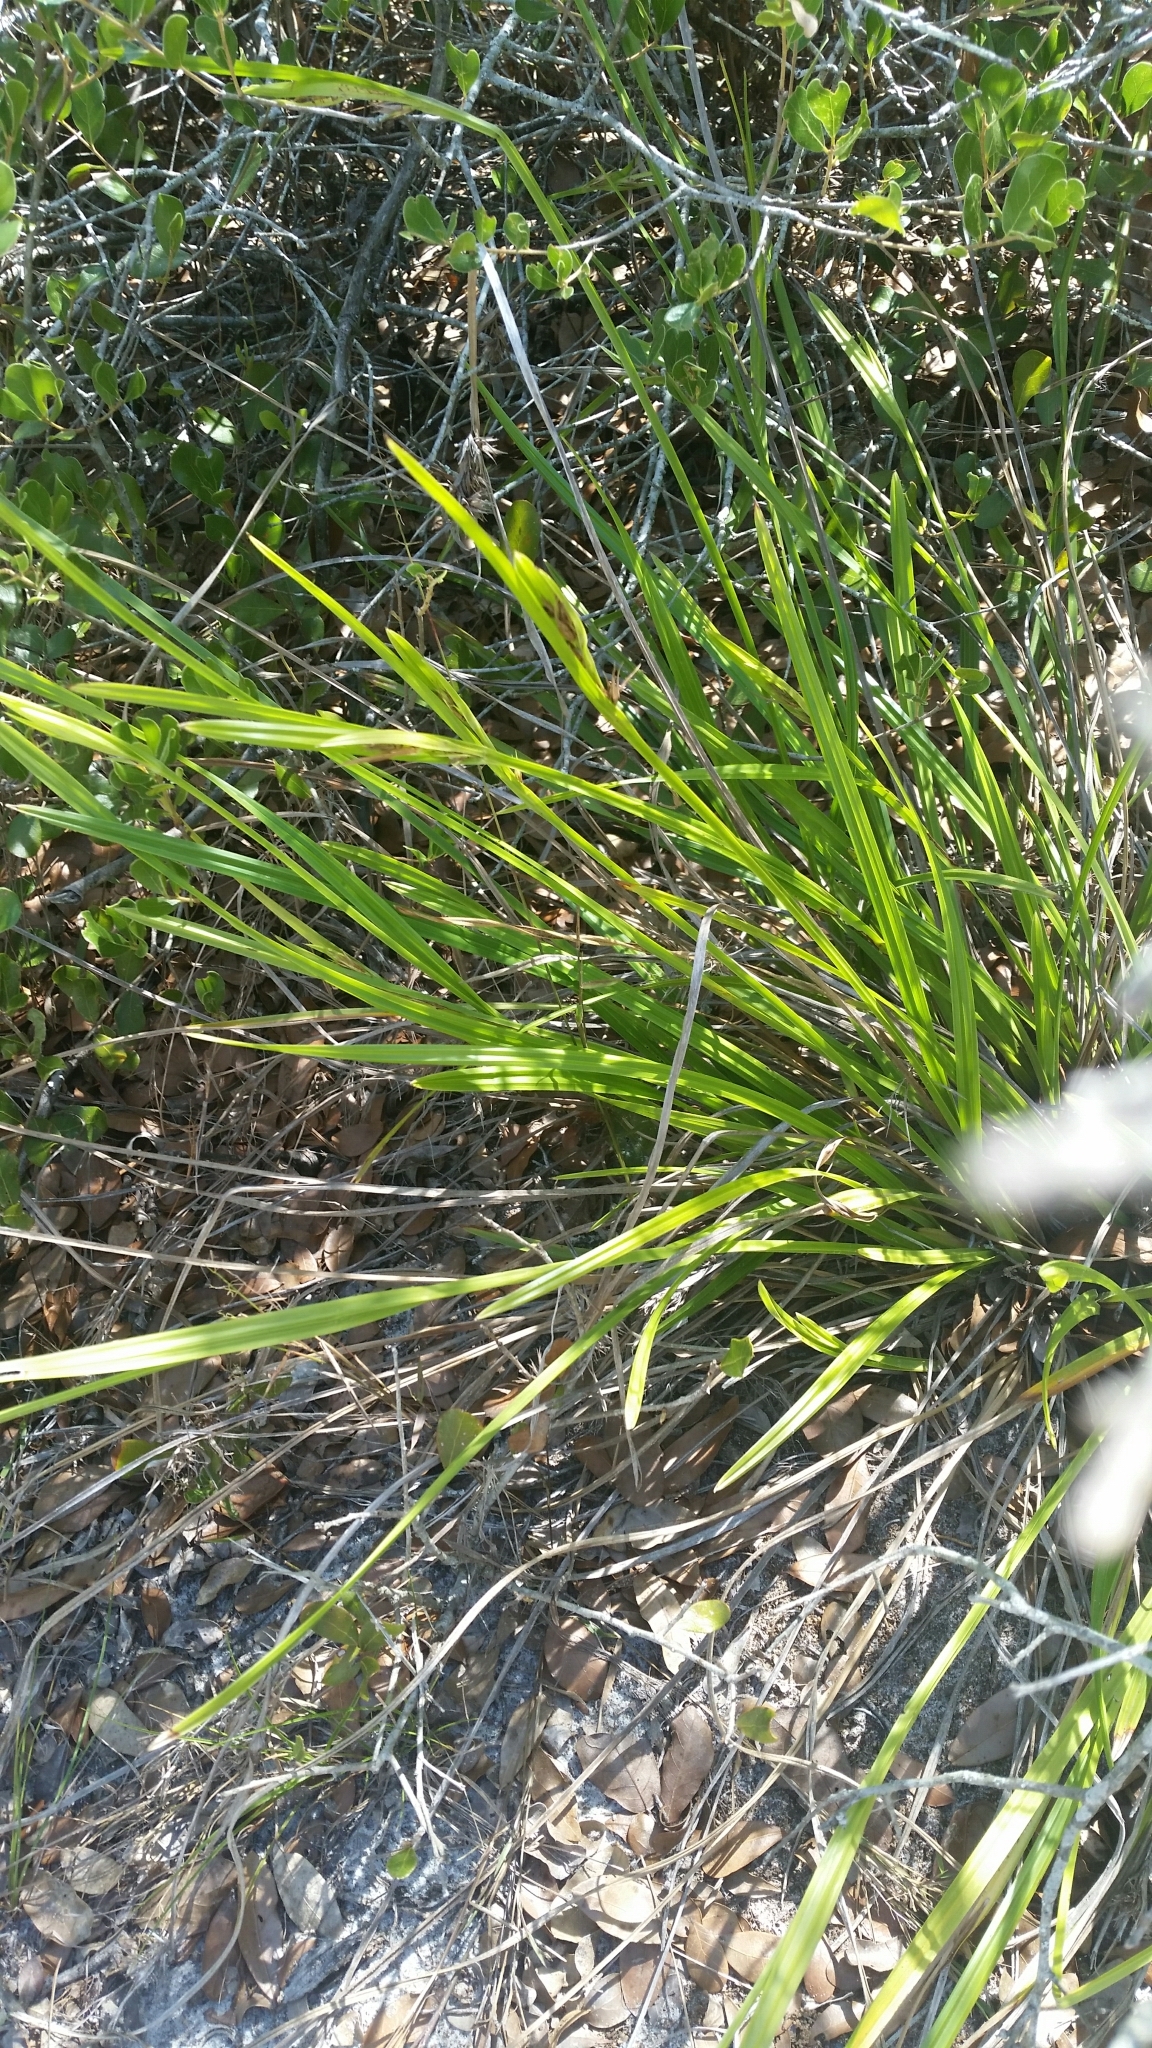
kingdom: Plantae
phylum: Tracheophyta
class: Liliopsida
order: Poales
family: Cyperaceae
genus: Scleria
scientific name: Scleria triglomerata
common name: Whip nutrush
